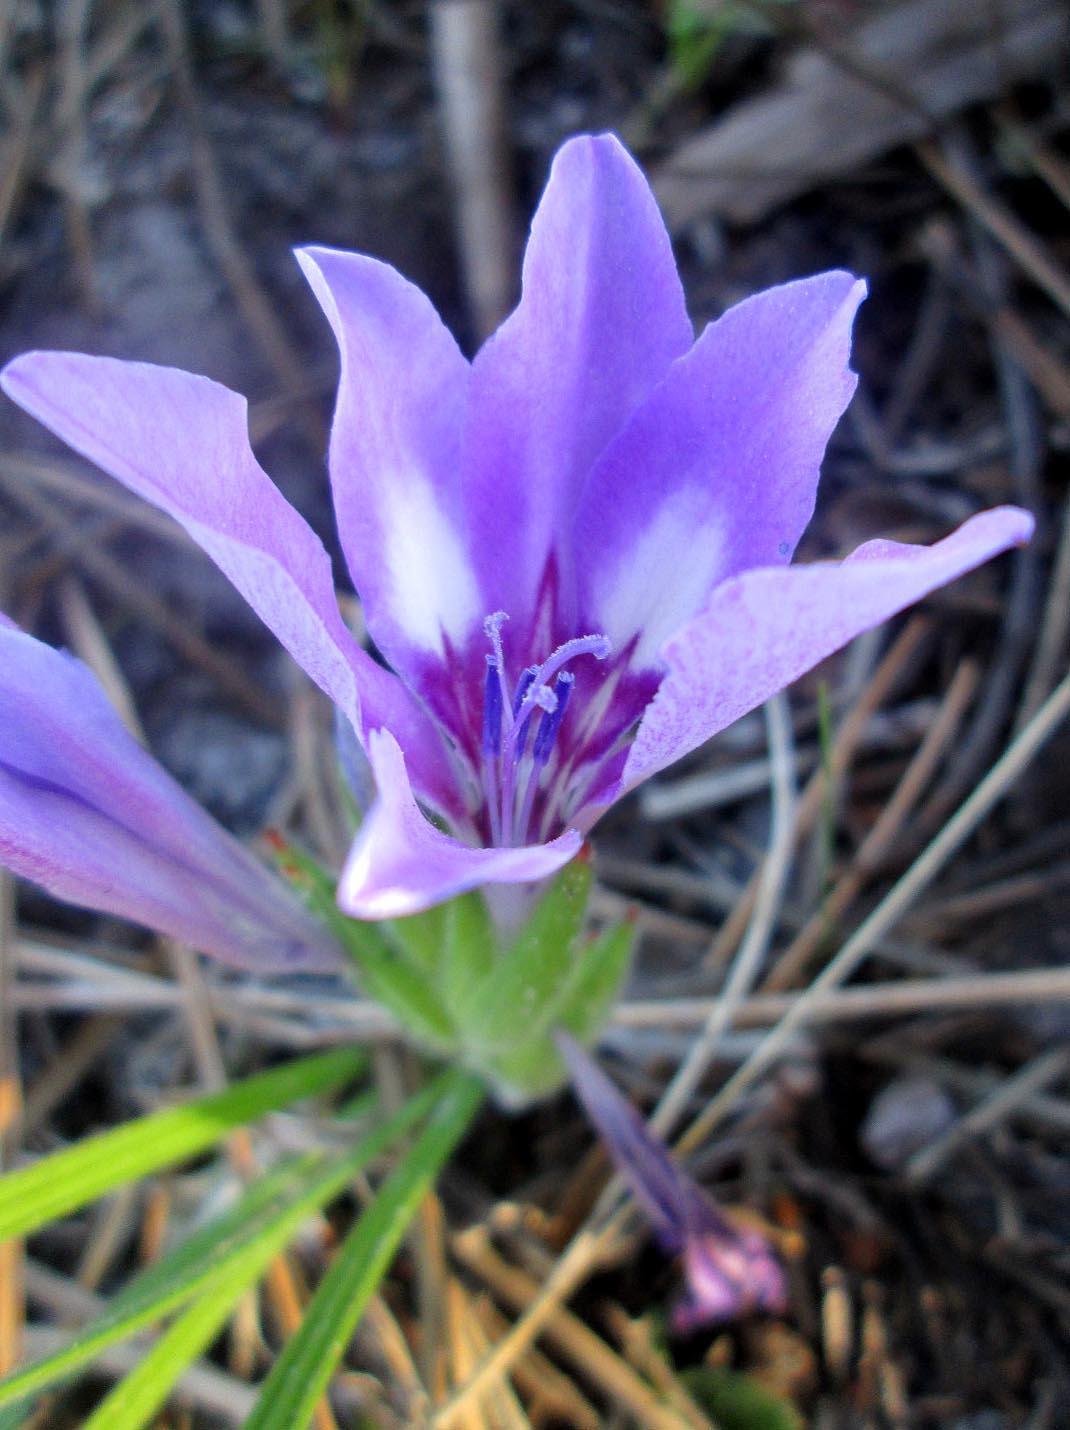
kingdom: Plantae
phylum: Tracheophyta
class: Liliopsida
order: Asparagales
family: Iridaceae
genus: Babiana
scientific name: Babiana ambigua
